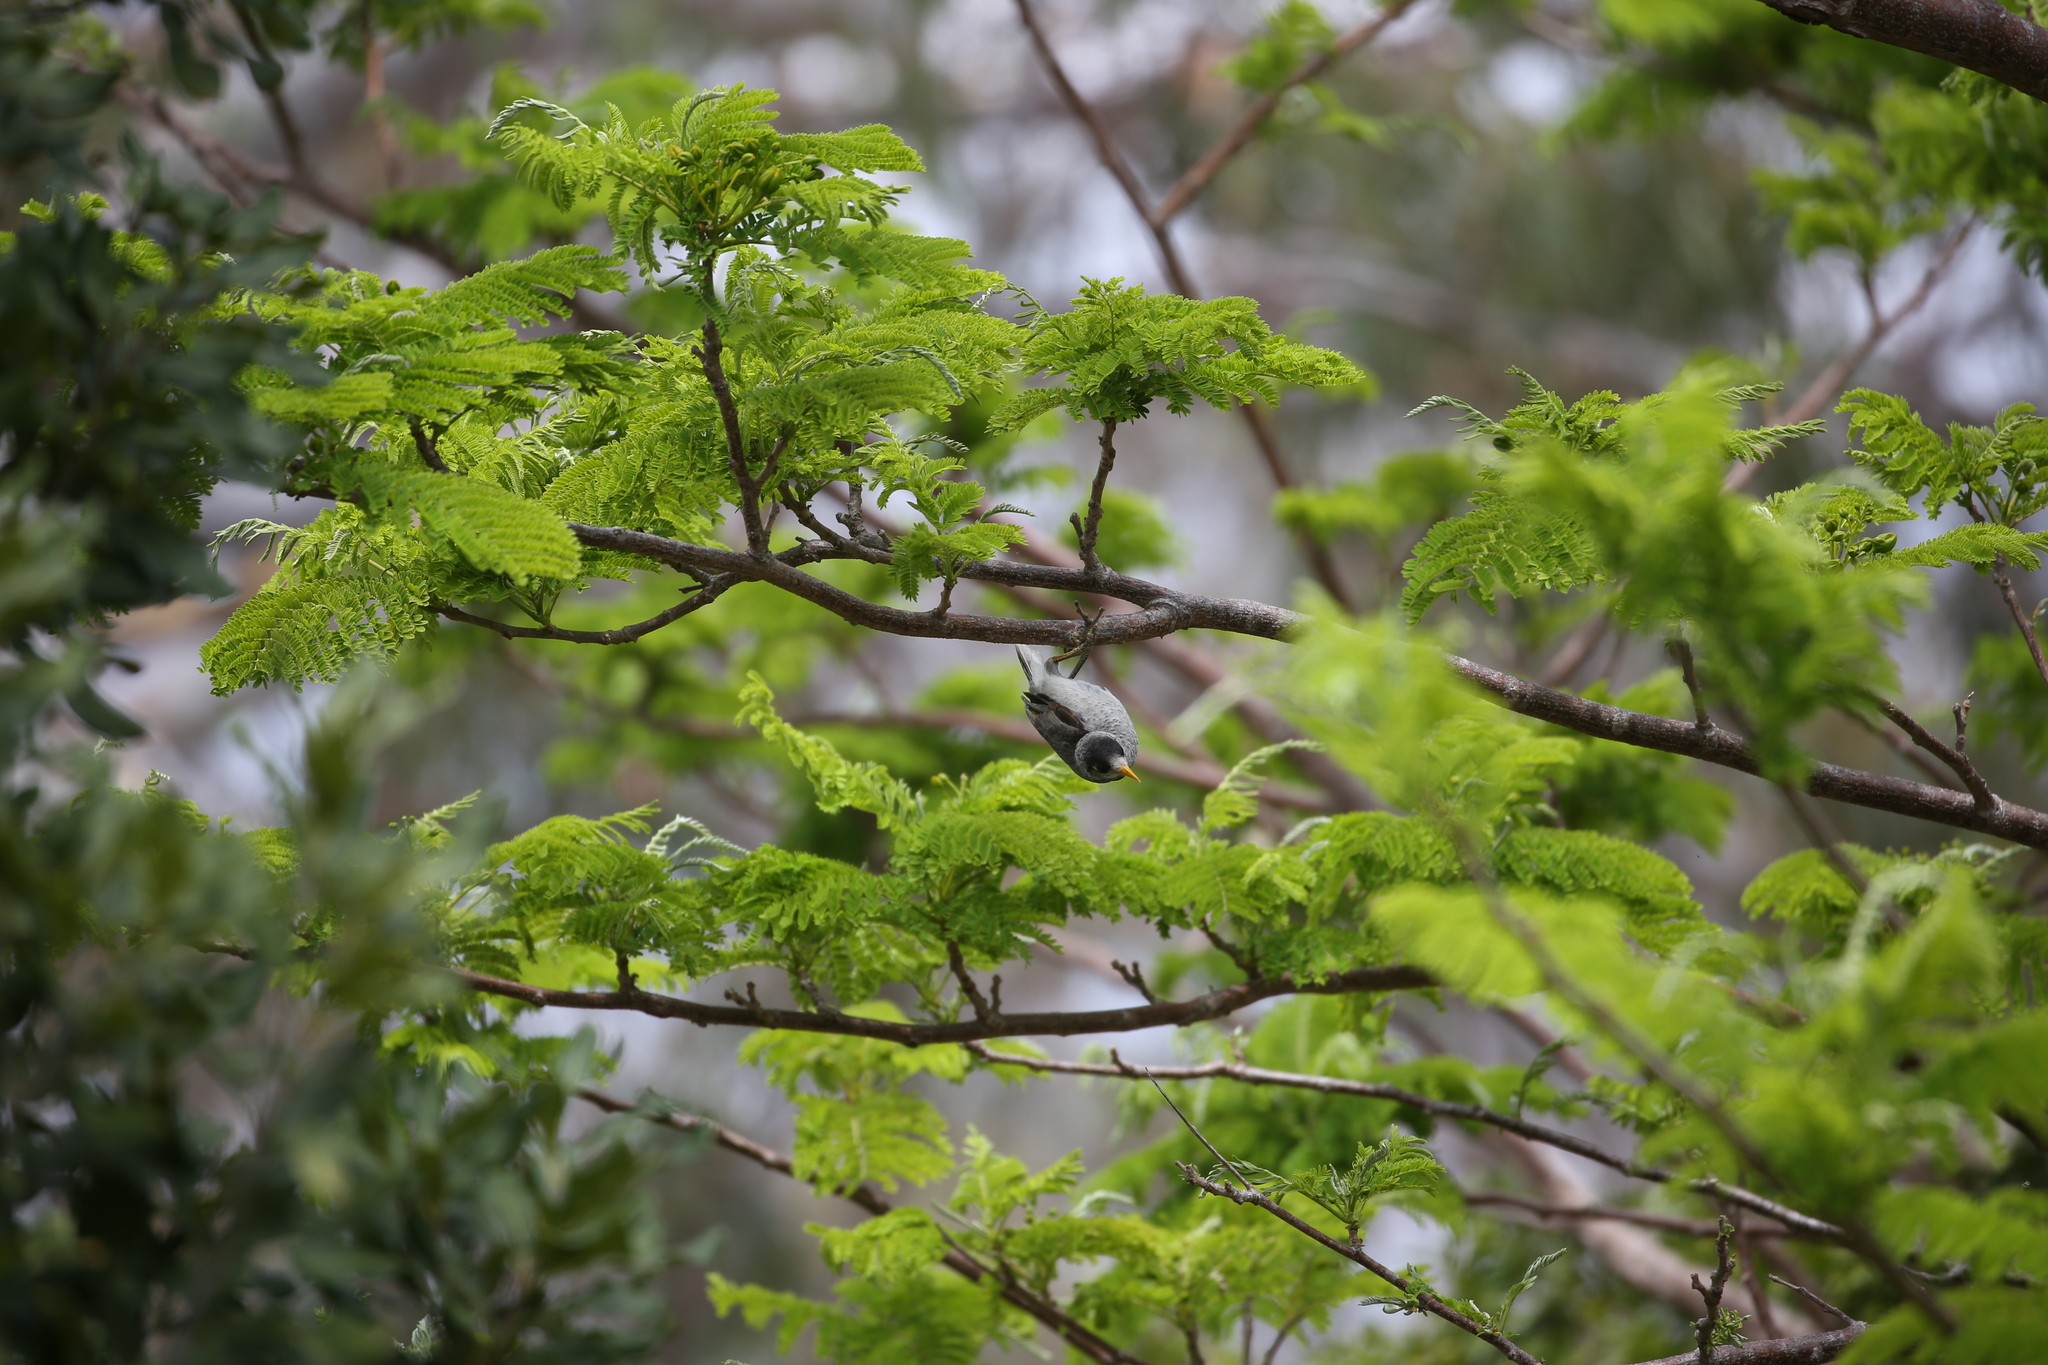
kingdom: Animalia
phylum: Chordata
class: Aves
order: Passeriformes
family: Meliphagidae
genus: Manorina
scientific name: Manorina melanocephala
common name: Noisy miner
